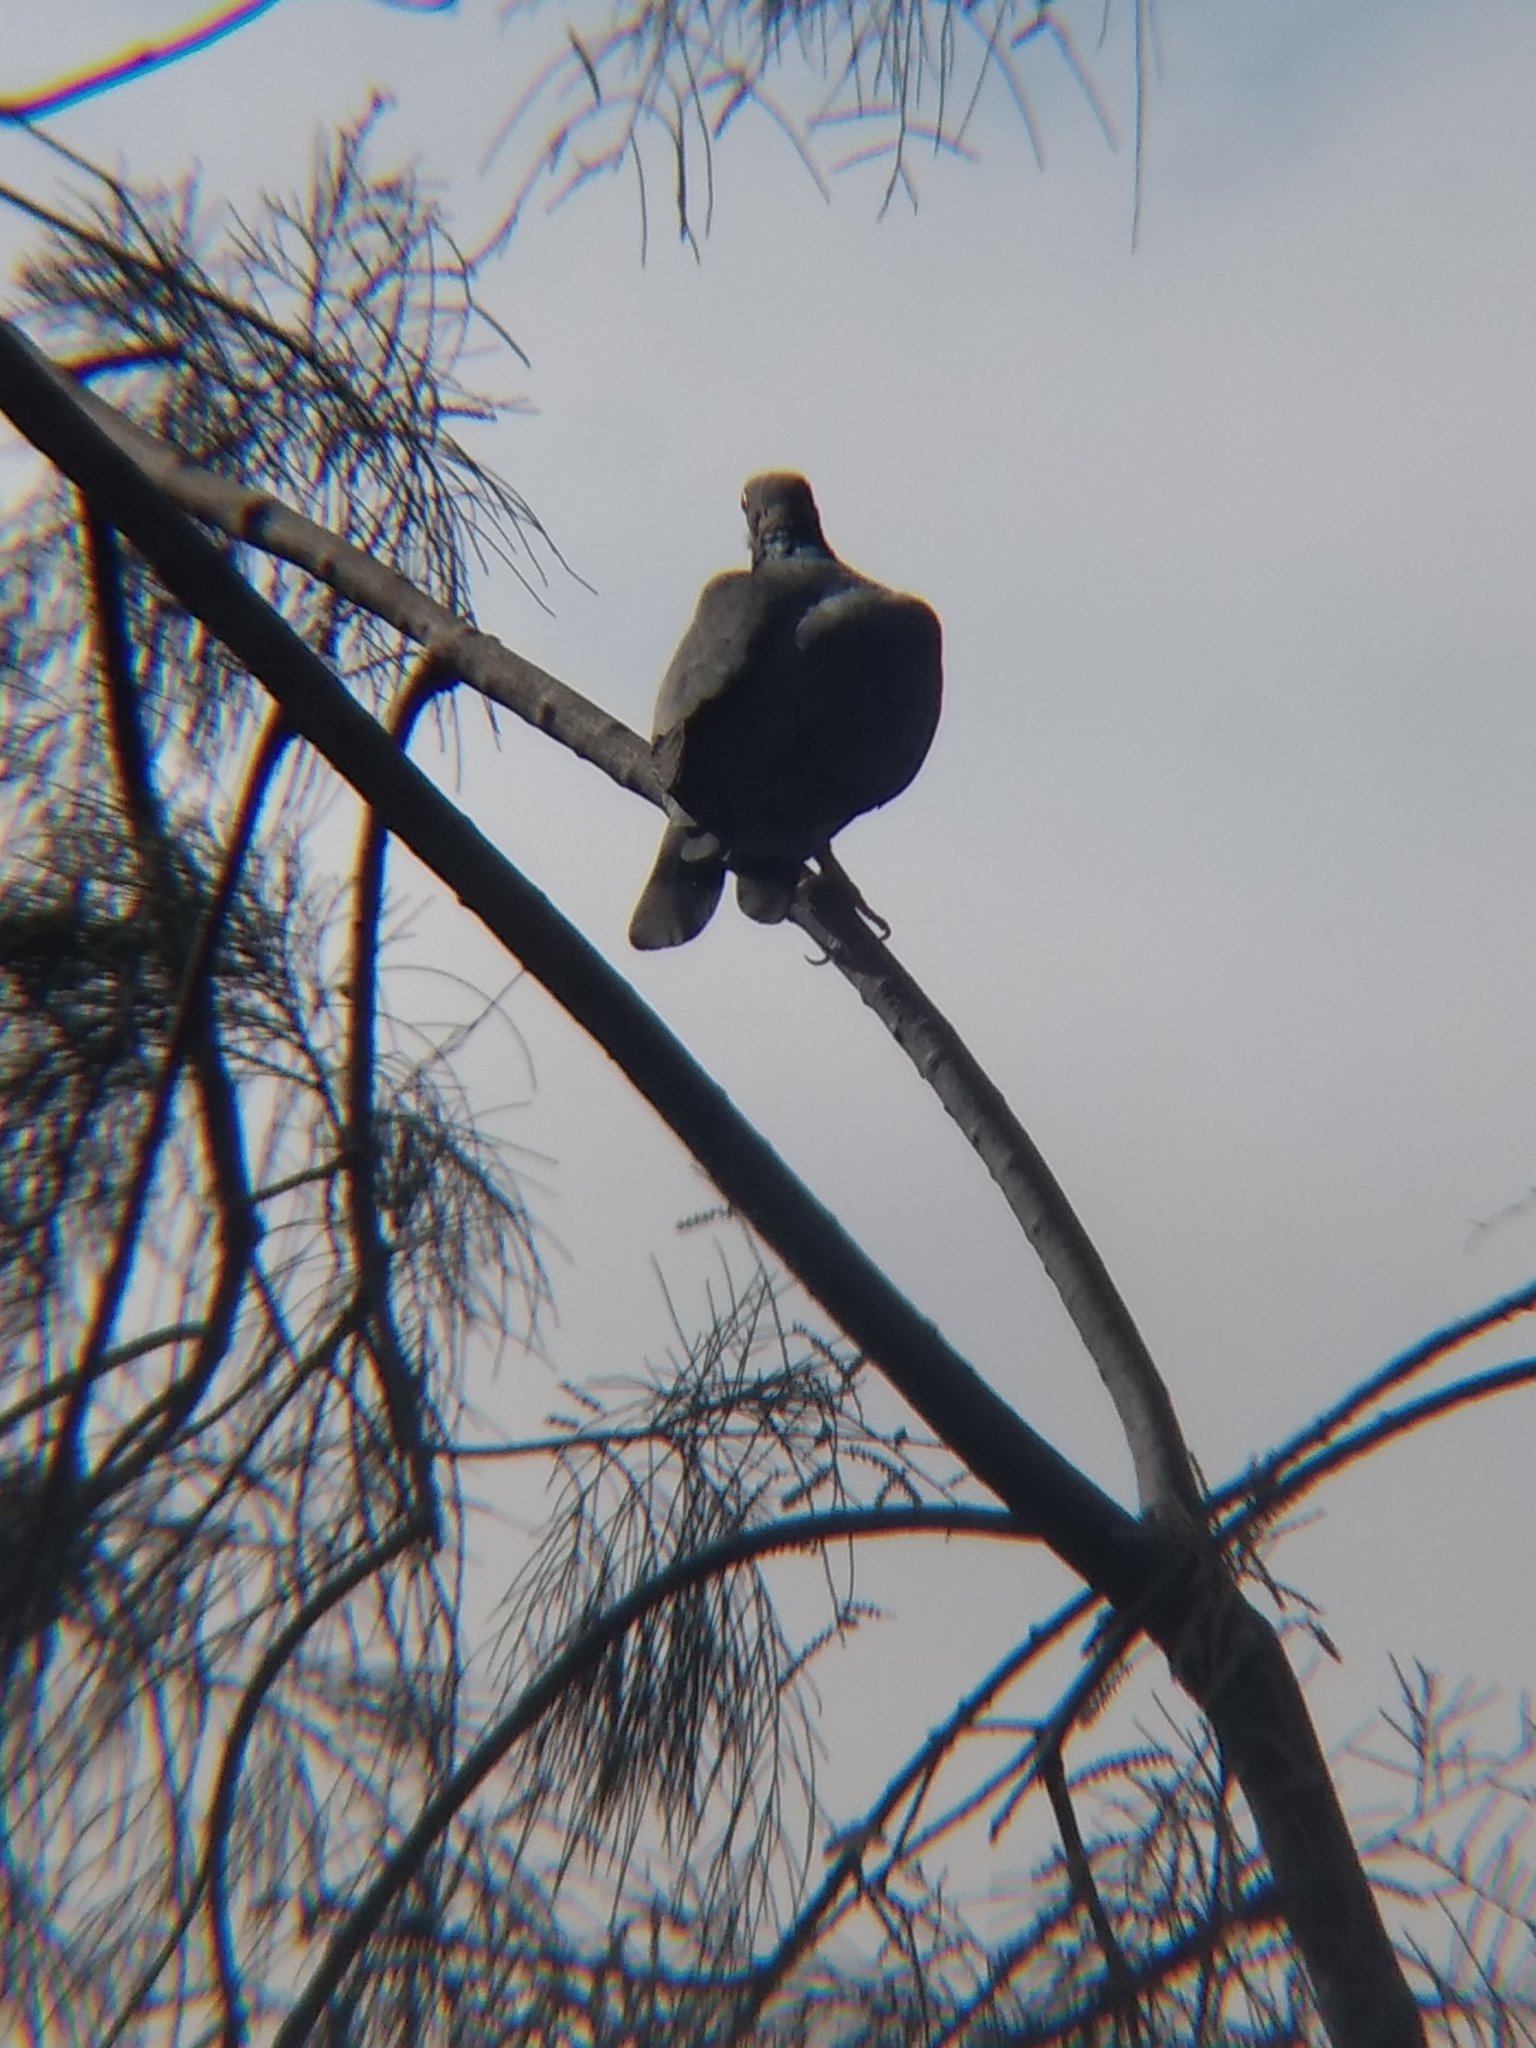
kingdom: Animalia
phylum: Chordata
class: Aves
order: Columbiformes
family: Columbidae
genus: Patagioenas
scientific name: Patagioenas fasciata
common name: Band-tailed pigeon
